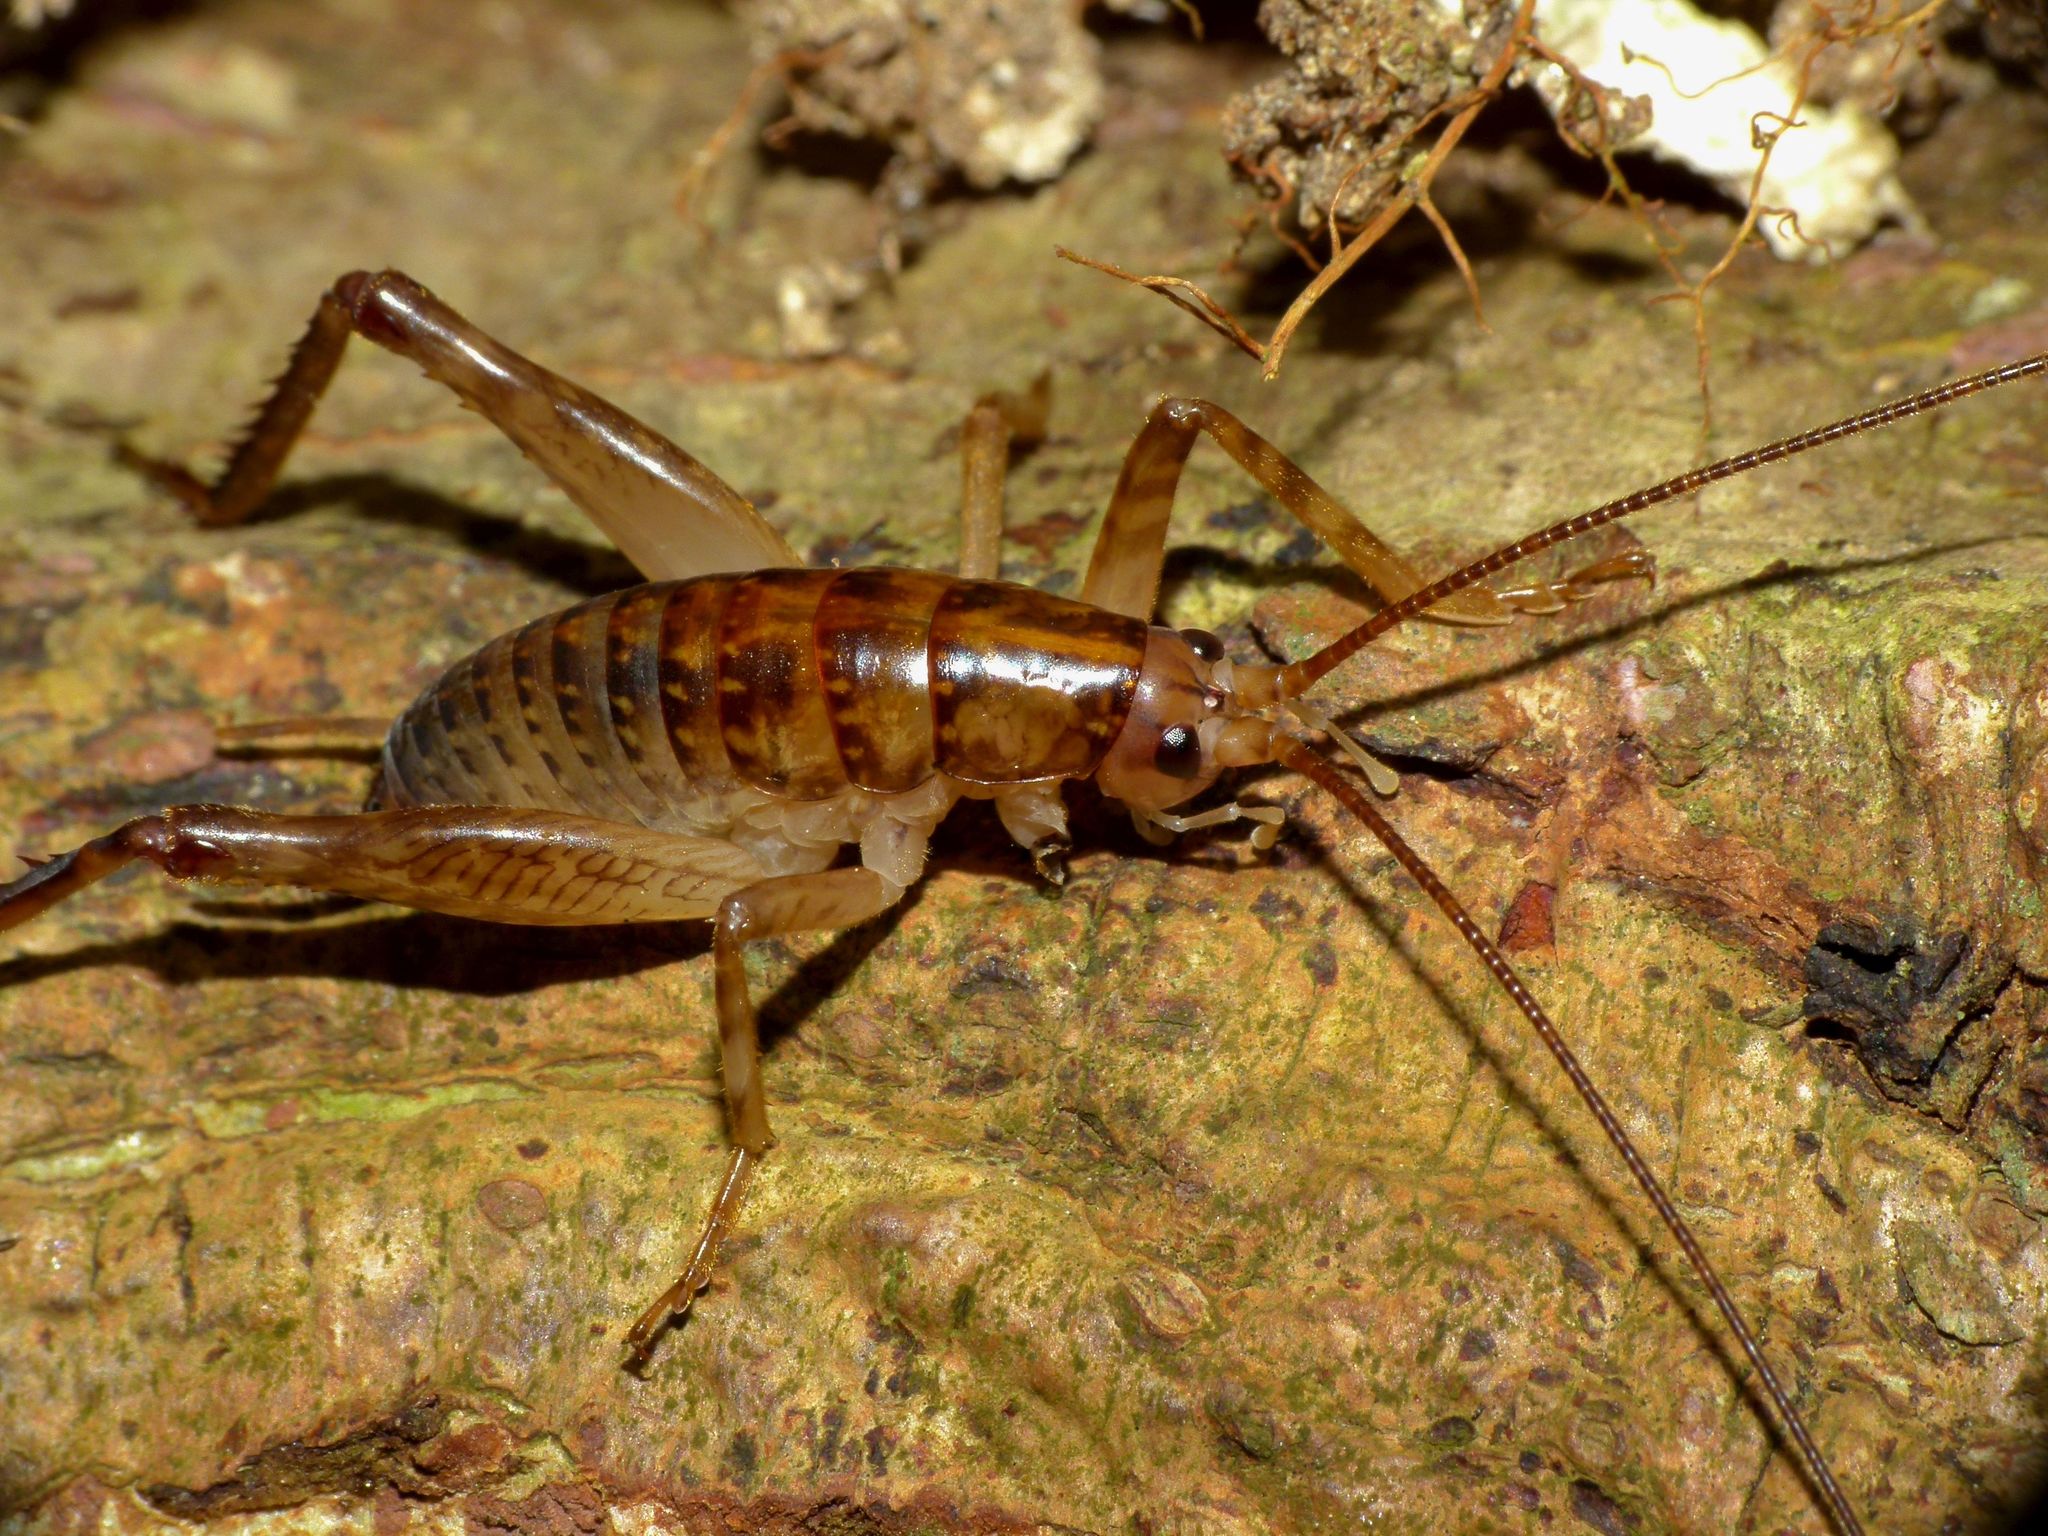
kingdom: Animalia
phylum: Arthropoda
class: Insecta
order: Orthoptera
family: Rhaphidophoridae
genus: Talitropsis
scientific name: Talitropsis sedilloti
